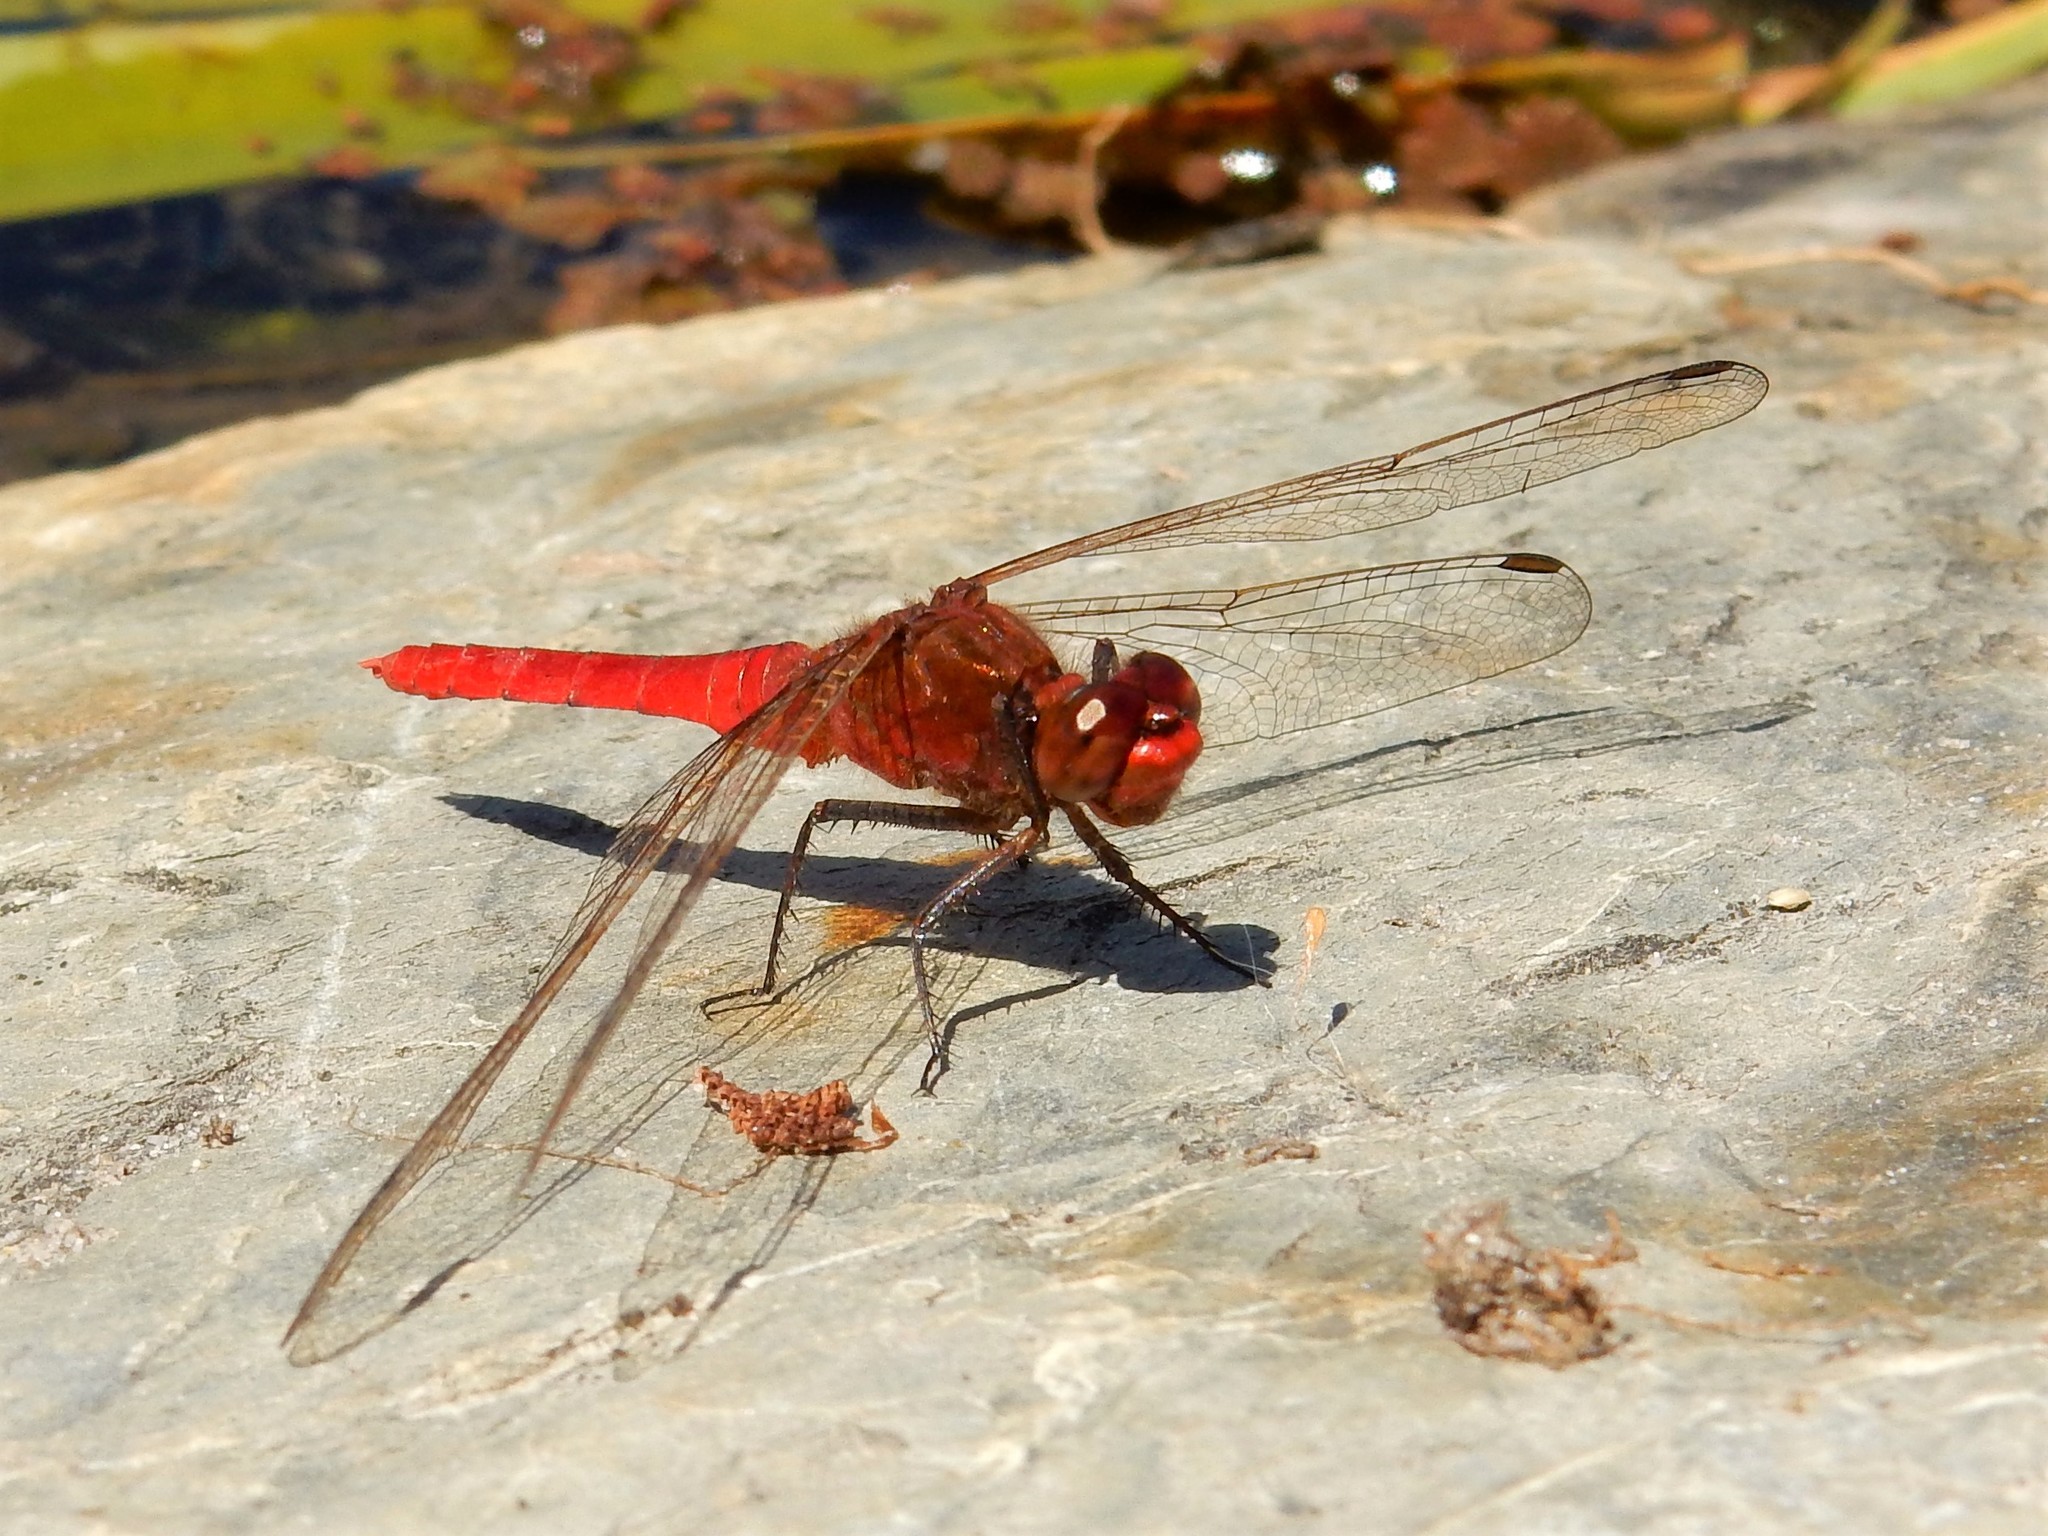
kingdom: Animalia
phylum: Arthropoda
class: Insecta
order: Odonata
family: Libellulidae
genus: Rhodothemis
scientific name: Rhodothemis lieftincki
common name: Red arrow
